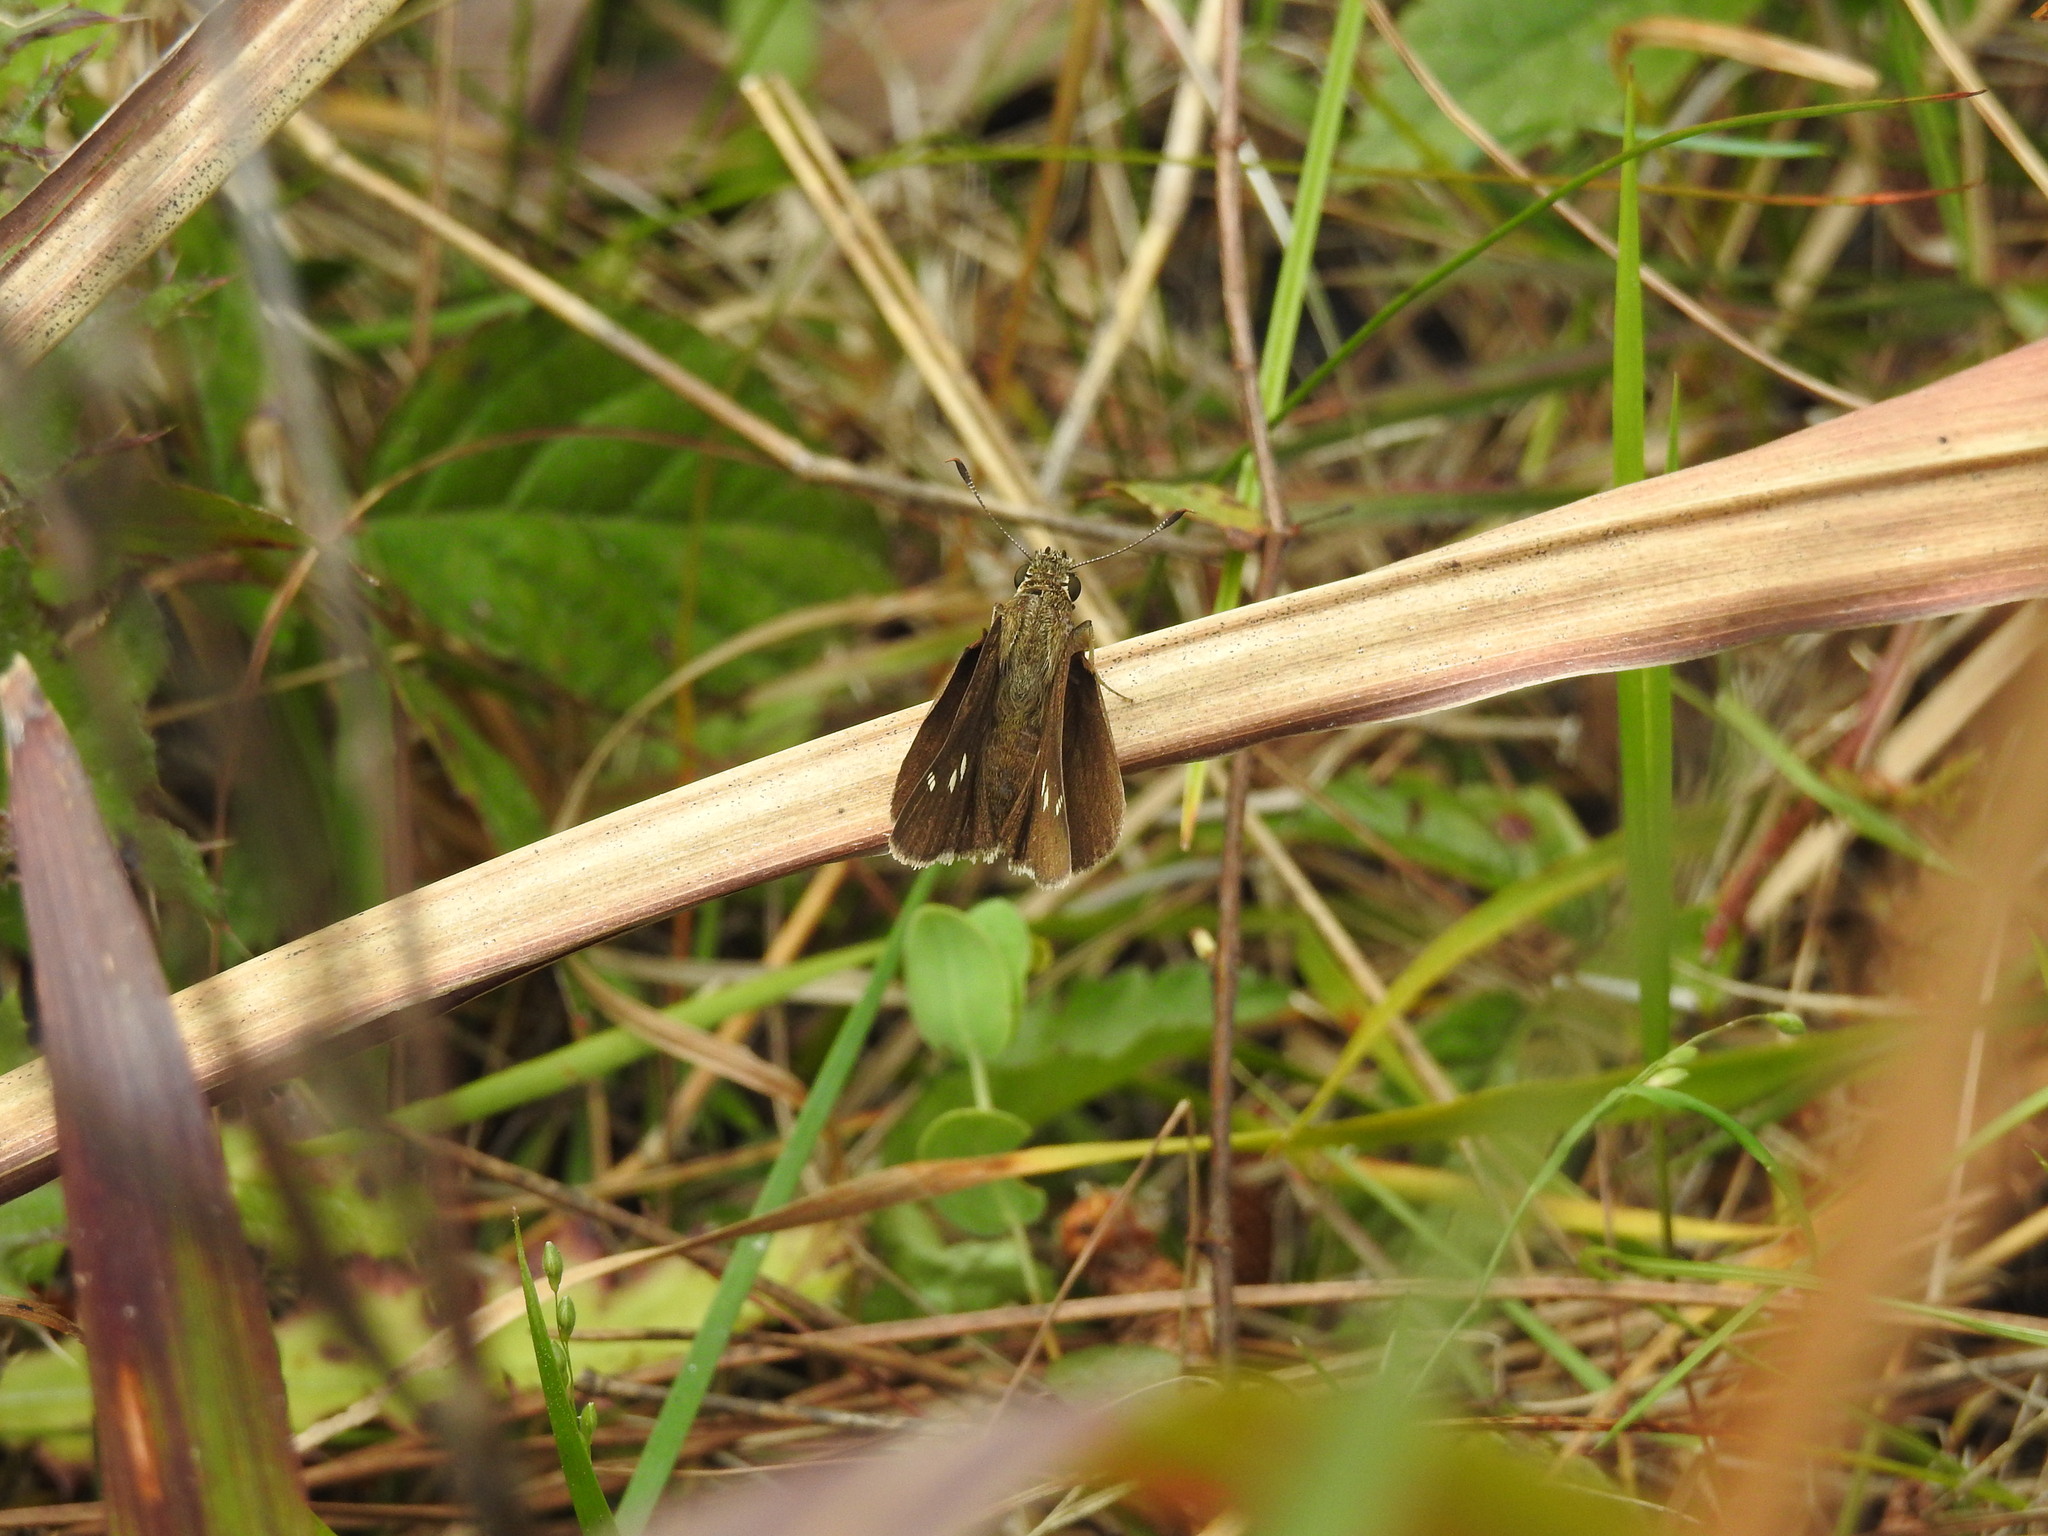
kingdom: Animalia
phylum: Arthropoda
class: Insecta
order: Lepidoptera
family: Hesperiidae
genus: Oligoria
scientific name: Oligoria maculata
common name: Twin-spot skipper
